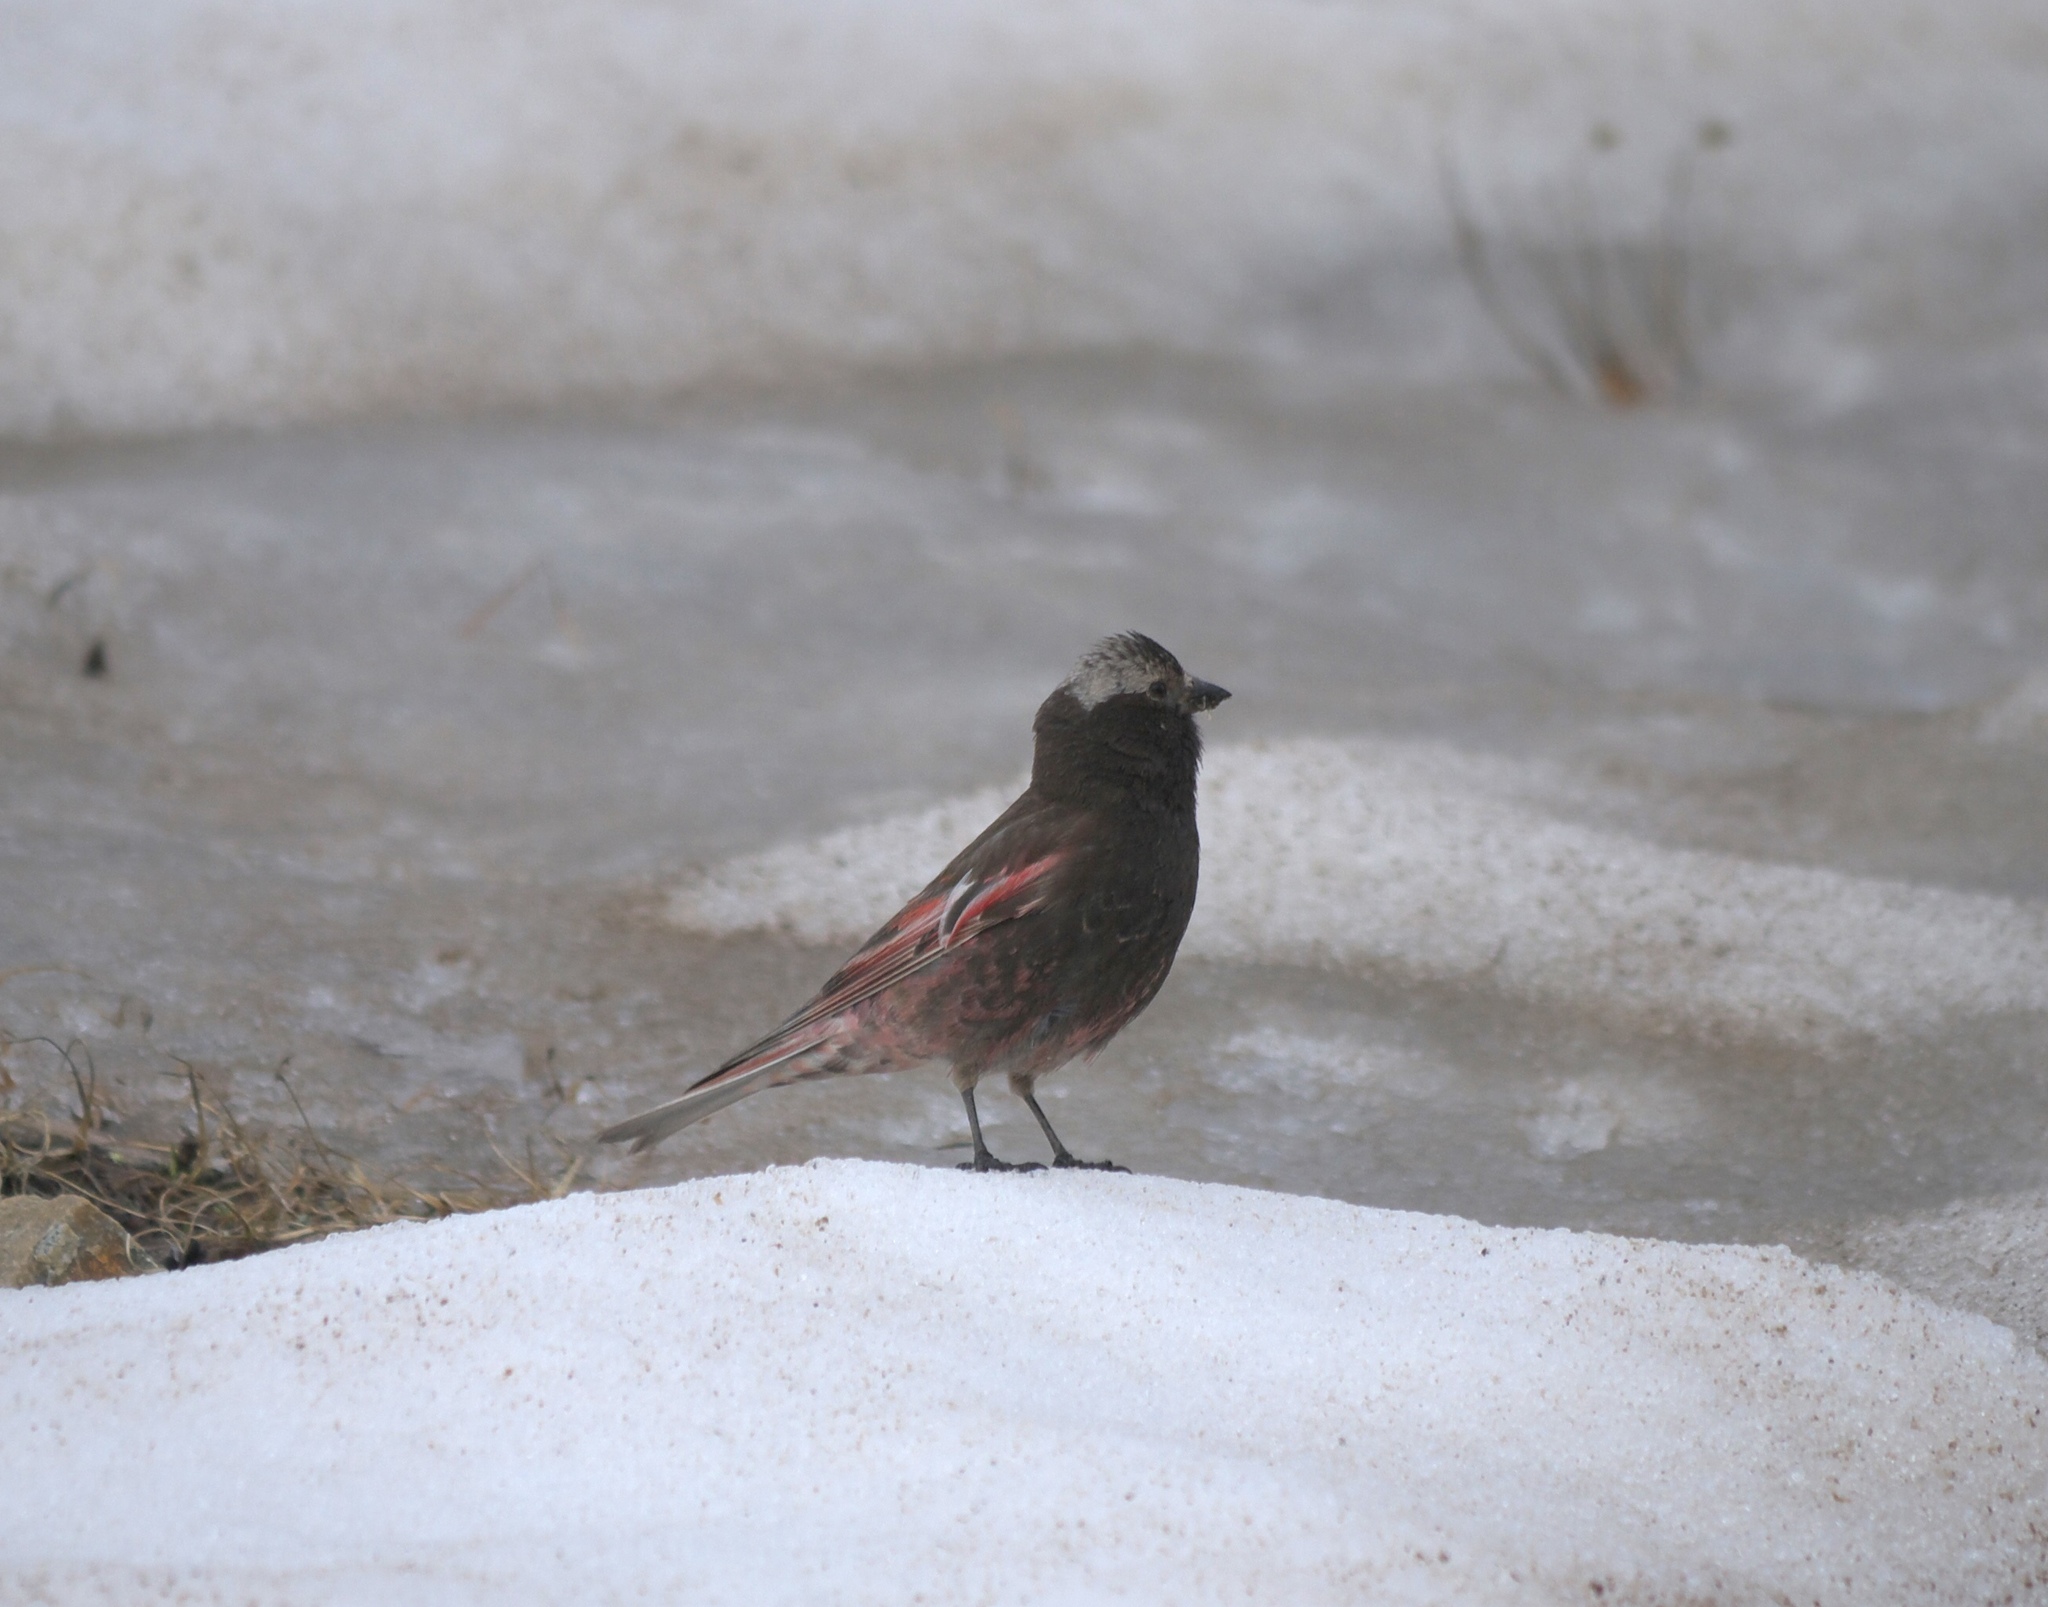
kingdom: Animalia
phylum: Chordata
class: Aves
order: Passeriformes
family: Fringillidae
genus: Leucosticte
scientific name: Leucosticte atrata
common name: Black rosy-finch
